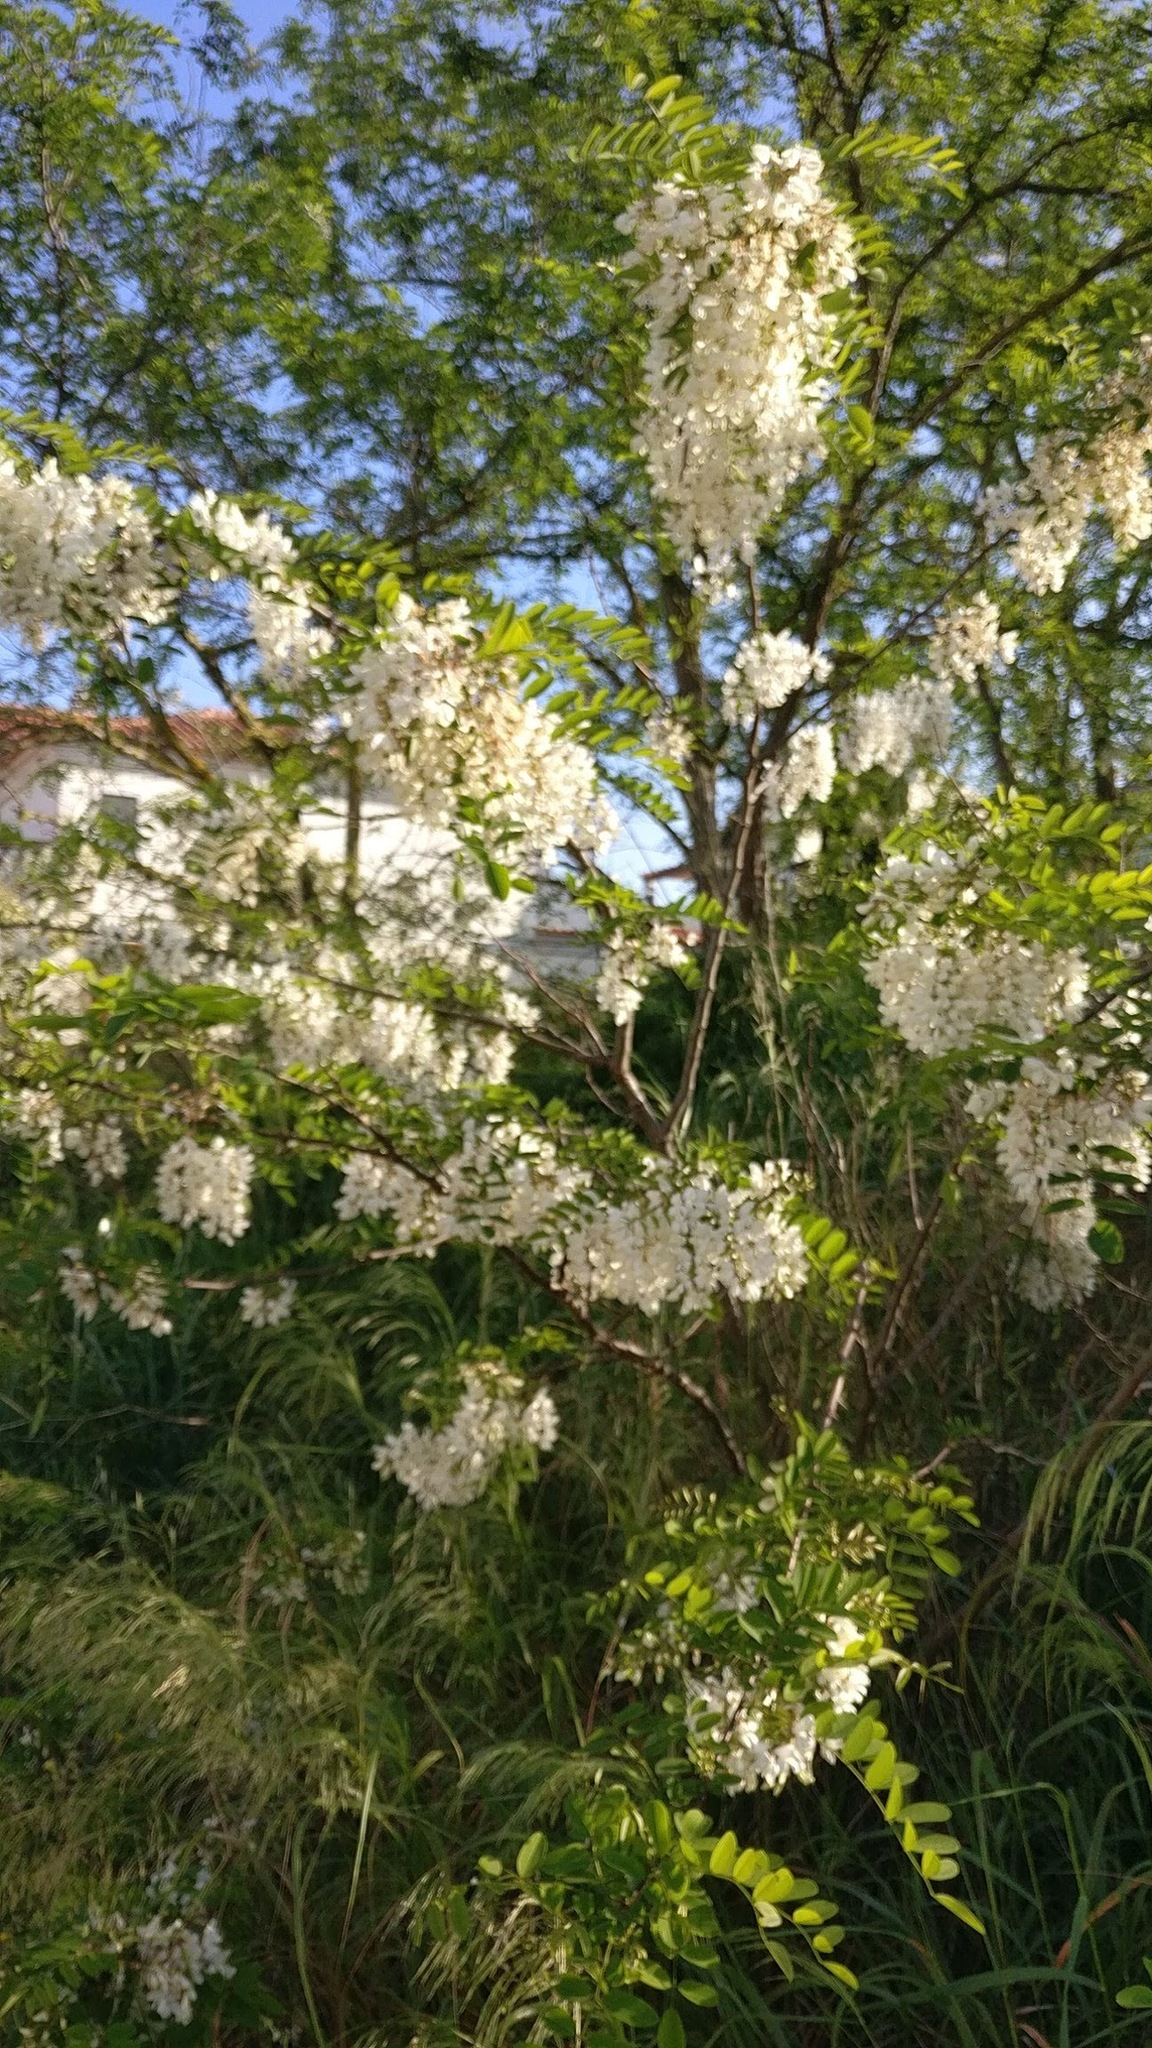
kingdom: Plantae
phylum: Tracheophyta
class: Magnoliopsida
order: Fabales
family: Fabaceae
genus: Robinia
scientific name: Robinia pseudoacacia
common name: Black locust
